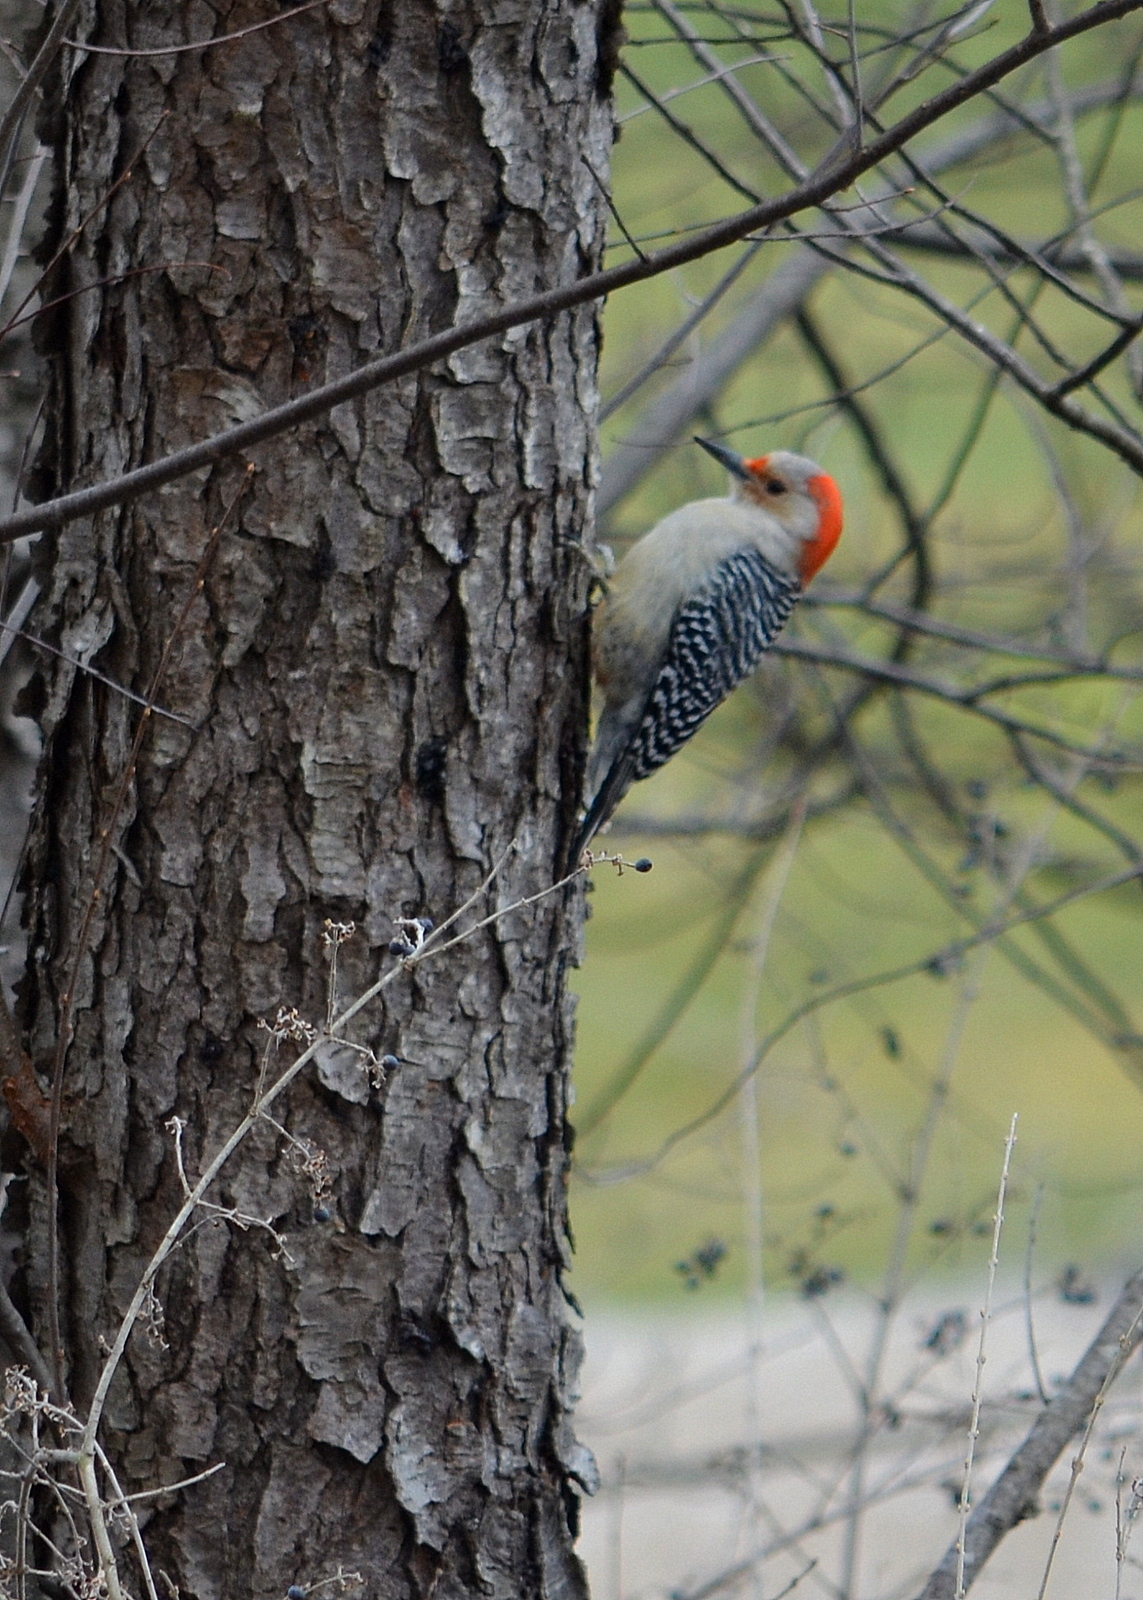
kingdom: Animalia
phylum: Chordata
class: Aves
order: Piciformes
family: Picidae
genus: Melanerpes
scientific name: Melanerpes carolinus
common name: Red-bellied woodpecker
